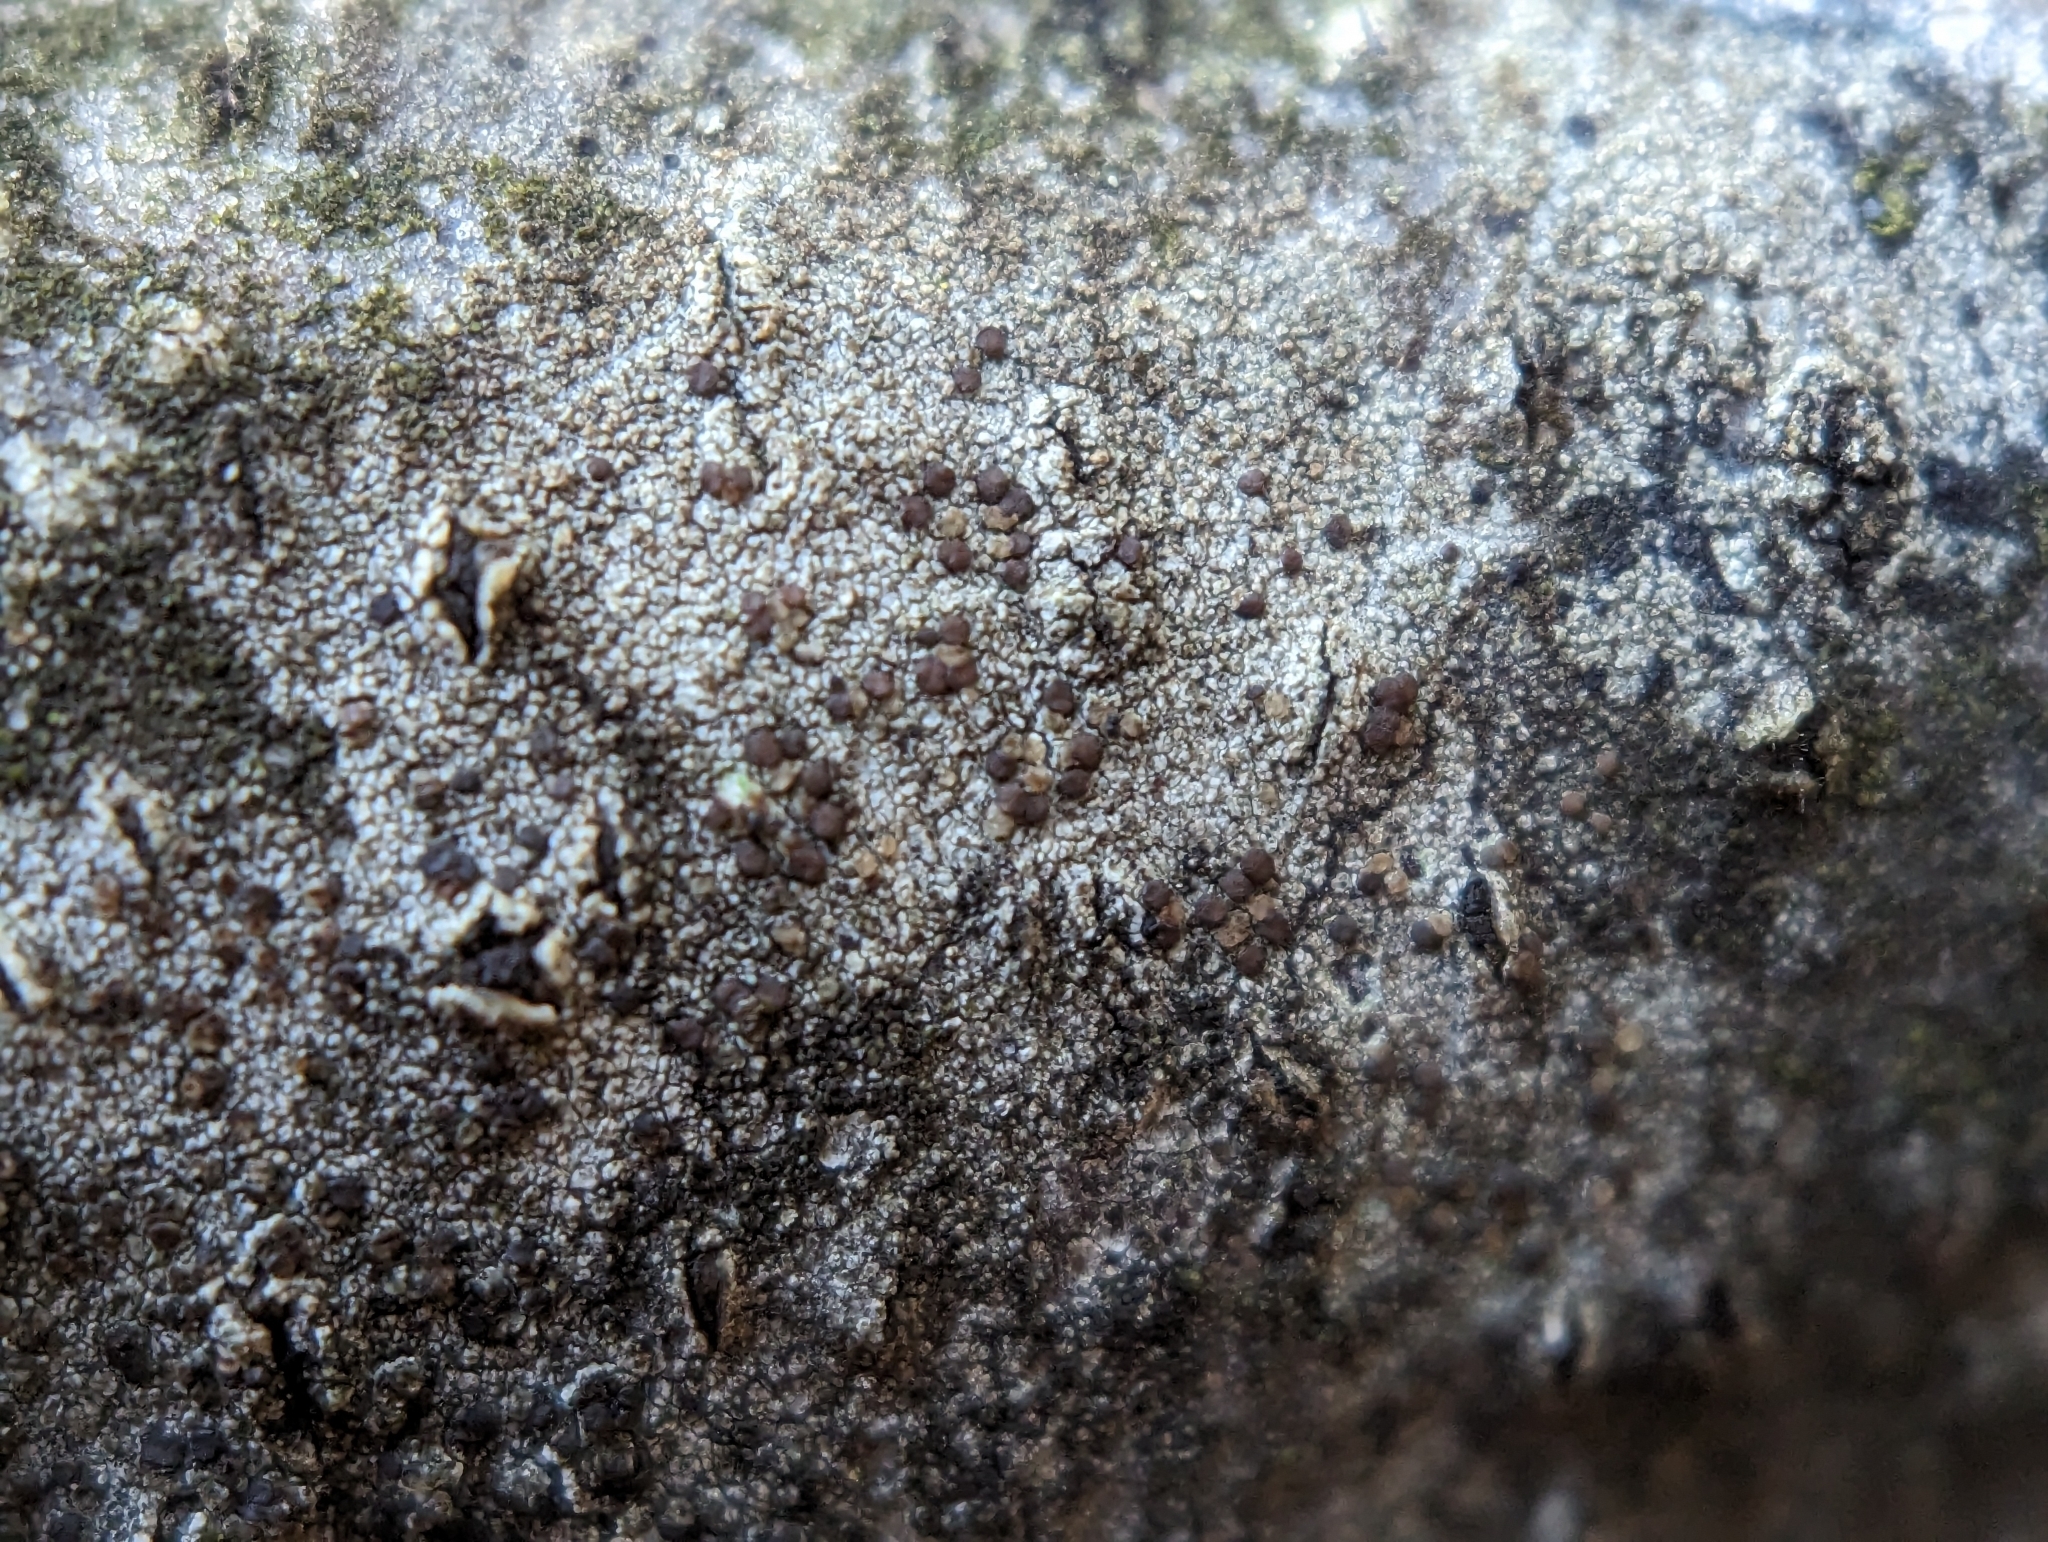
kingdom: Fungi
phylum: Ascomycota
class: Lecanoromycetes
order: Lecanorales
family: Lecanoraceae
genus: Traponora
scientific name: Traponora varians
